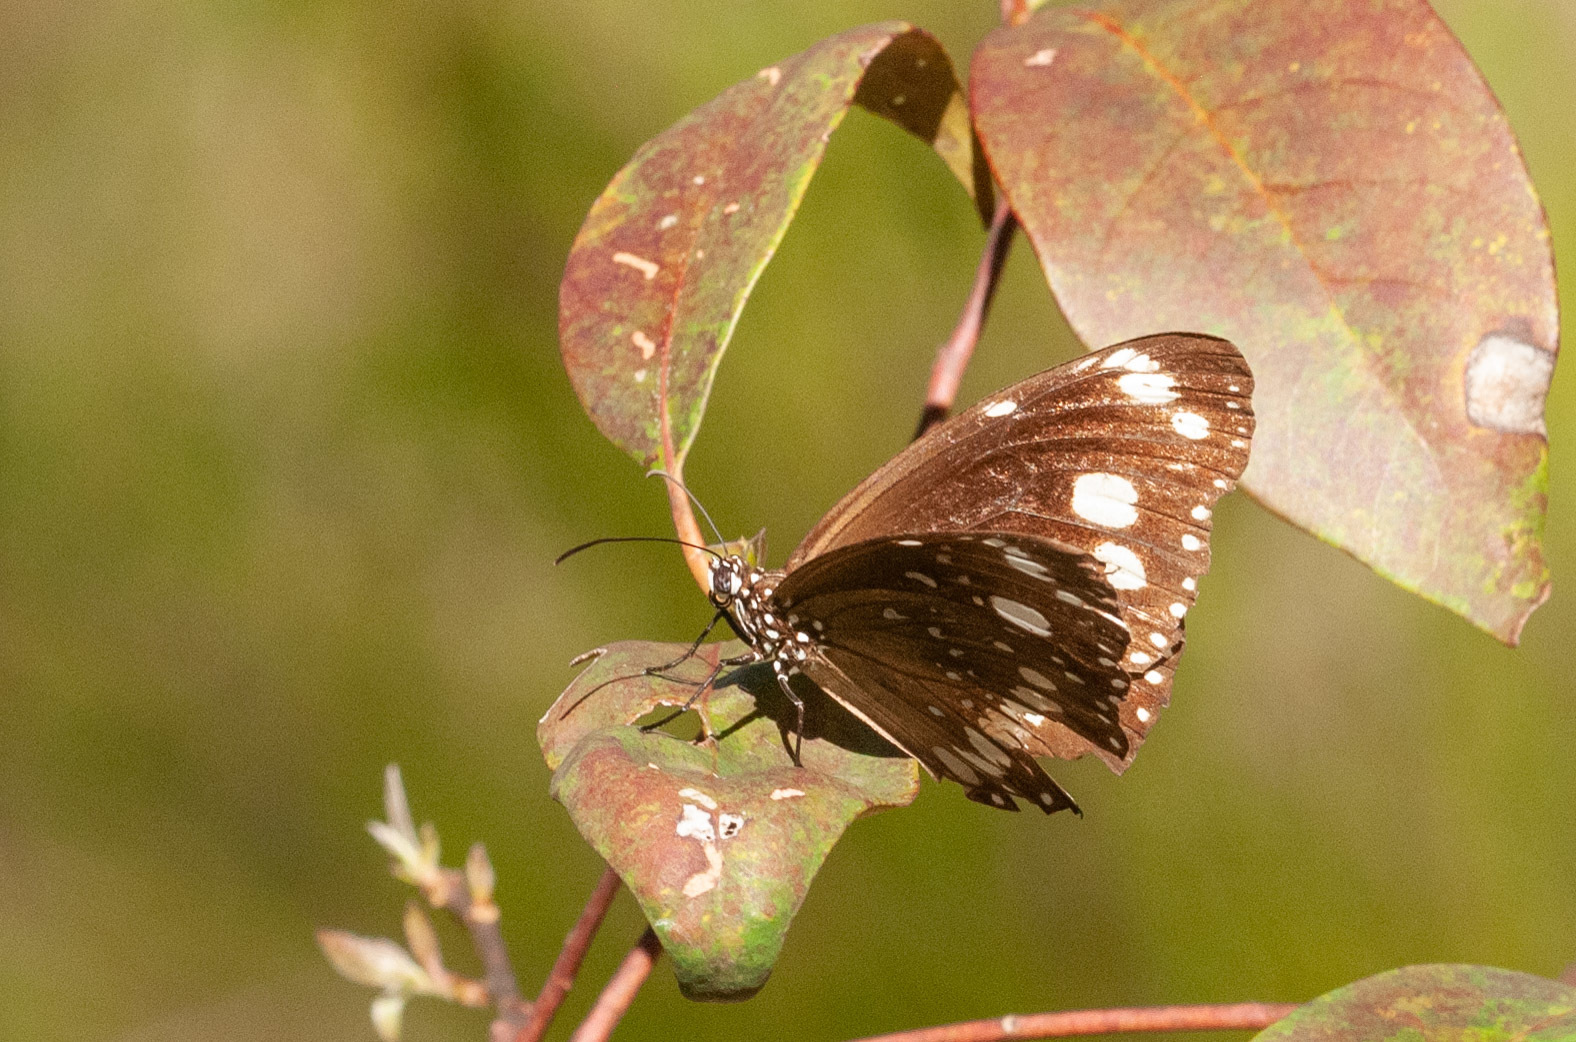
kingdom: Animalia
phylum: Arthropoda
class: Insecta
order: Lepidoptera
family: Nymphalidae
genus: Euploea
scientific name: Euploea core
